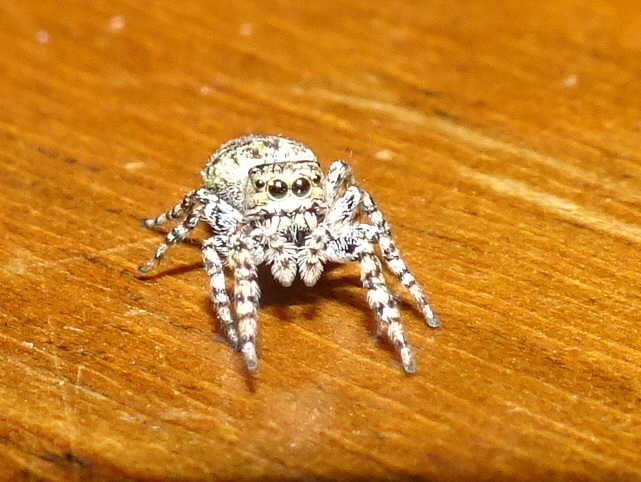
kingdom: Animalia
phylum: Arthropoda
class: Arachnida
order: Araneae
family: Salticidae
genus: Pelegrina
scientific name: Pelegrina galathea
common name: Jumping spiders
